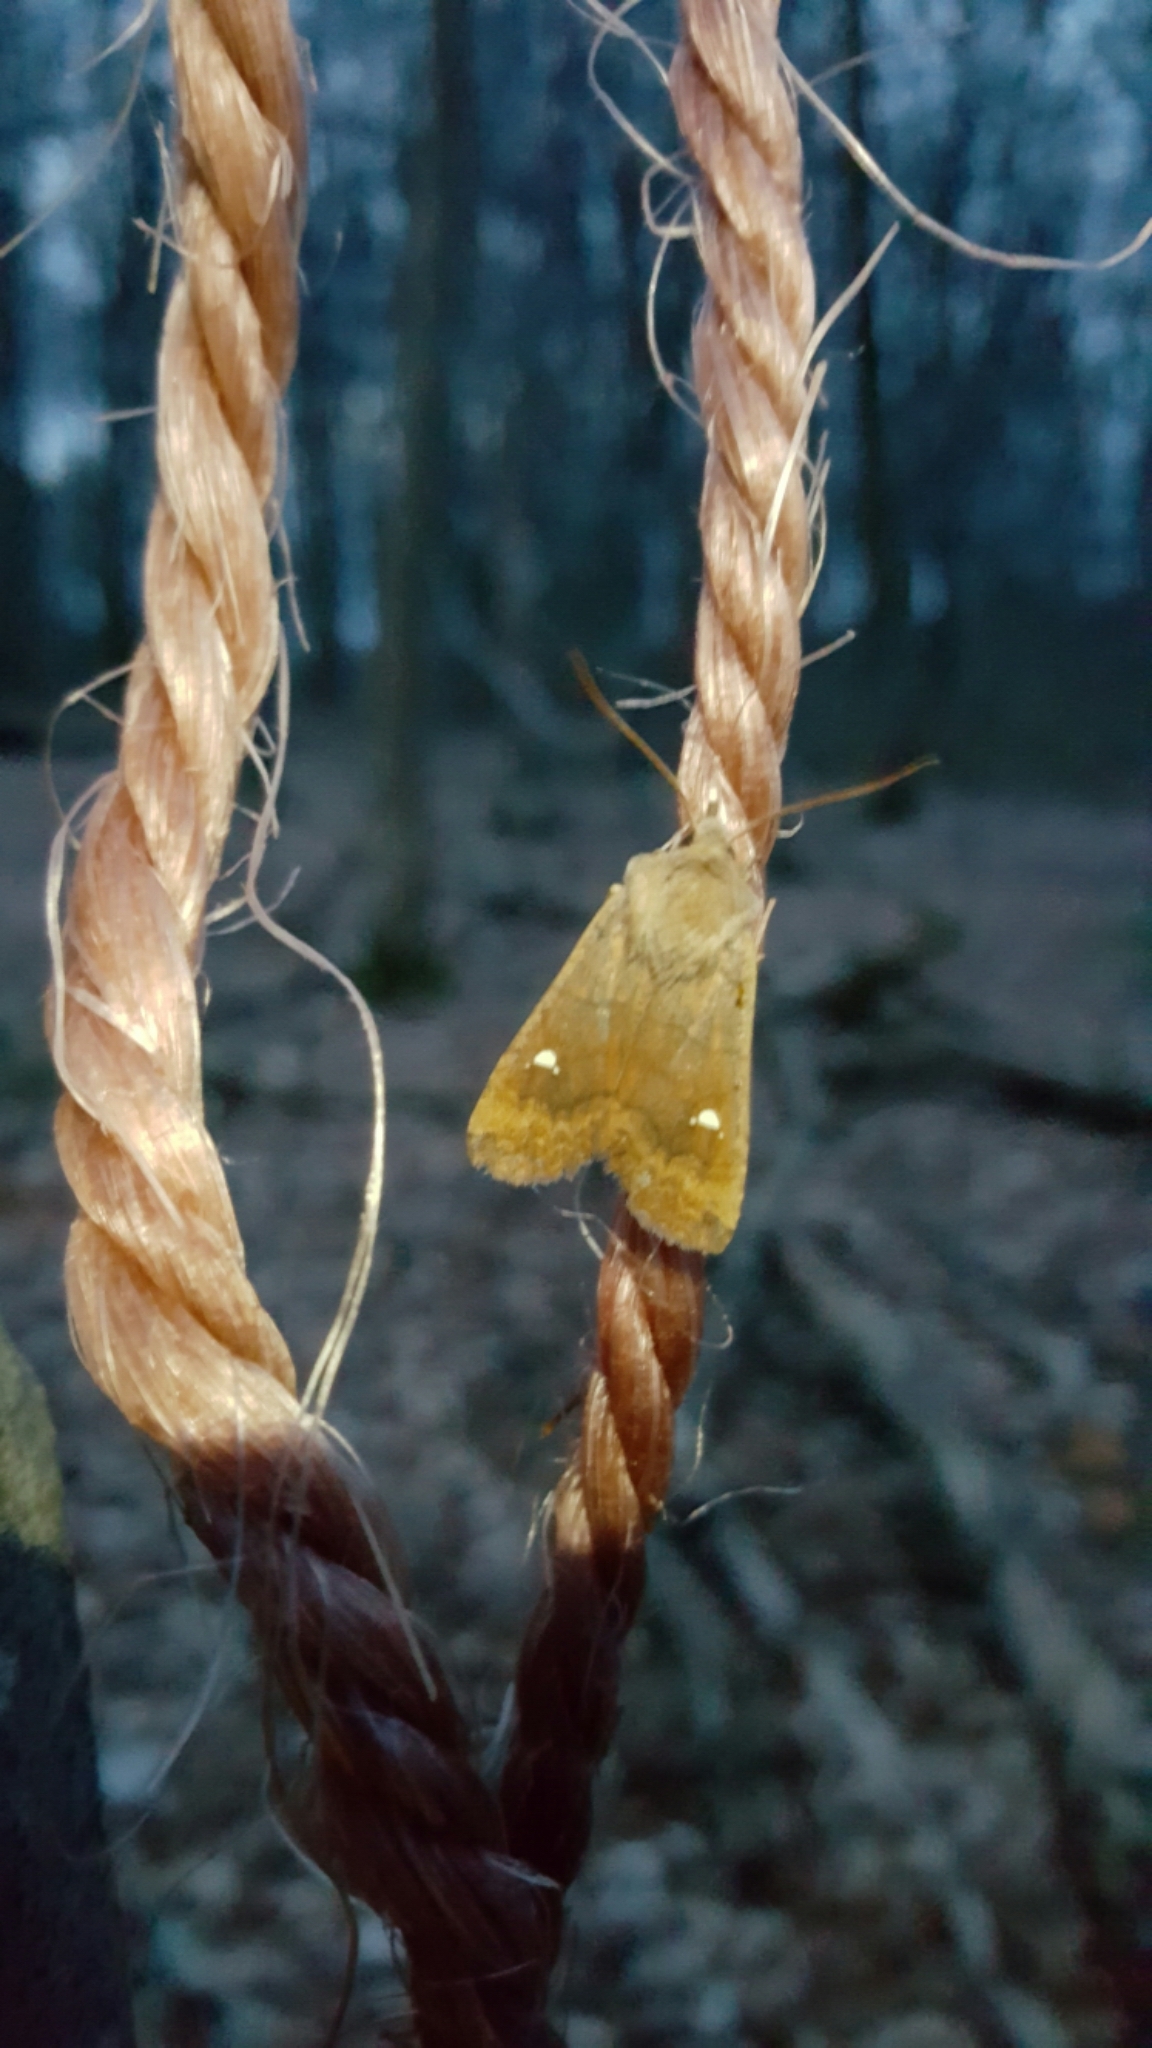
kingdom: Animalia
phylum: Arthropoda
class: Insecta
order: Lepidoptera
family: Noctuidae
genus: Eupsilia
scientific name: Eupsilia transversa
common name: Satellite
